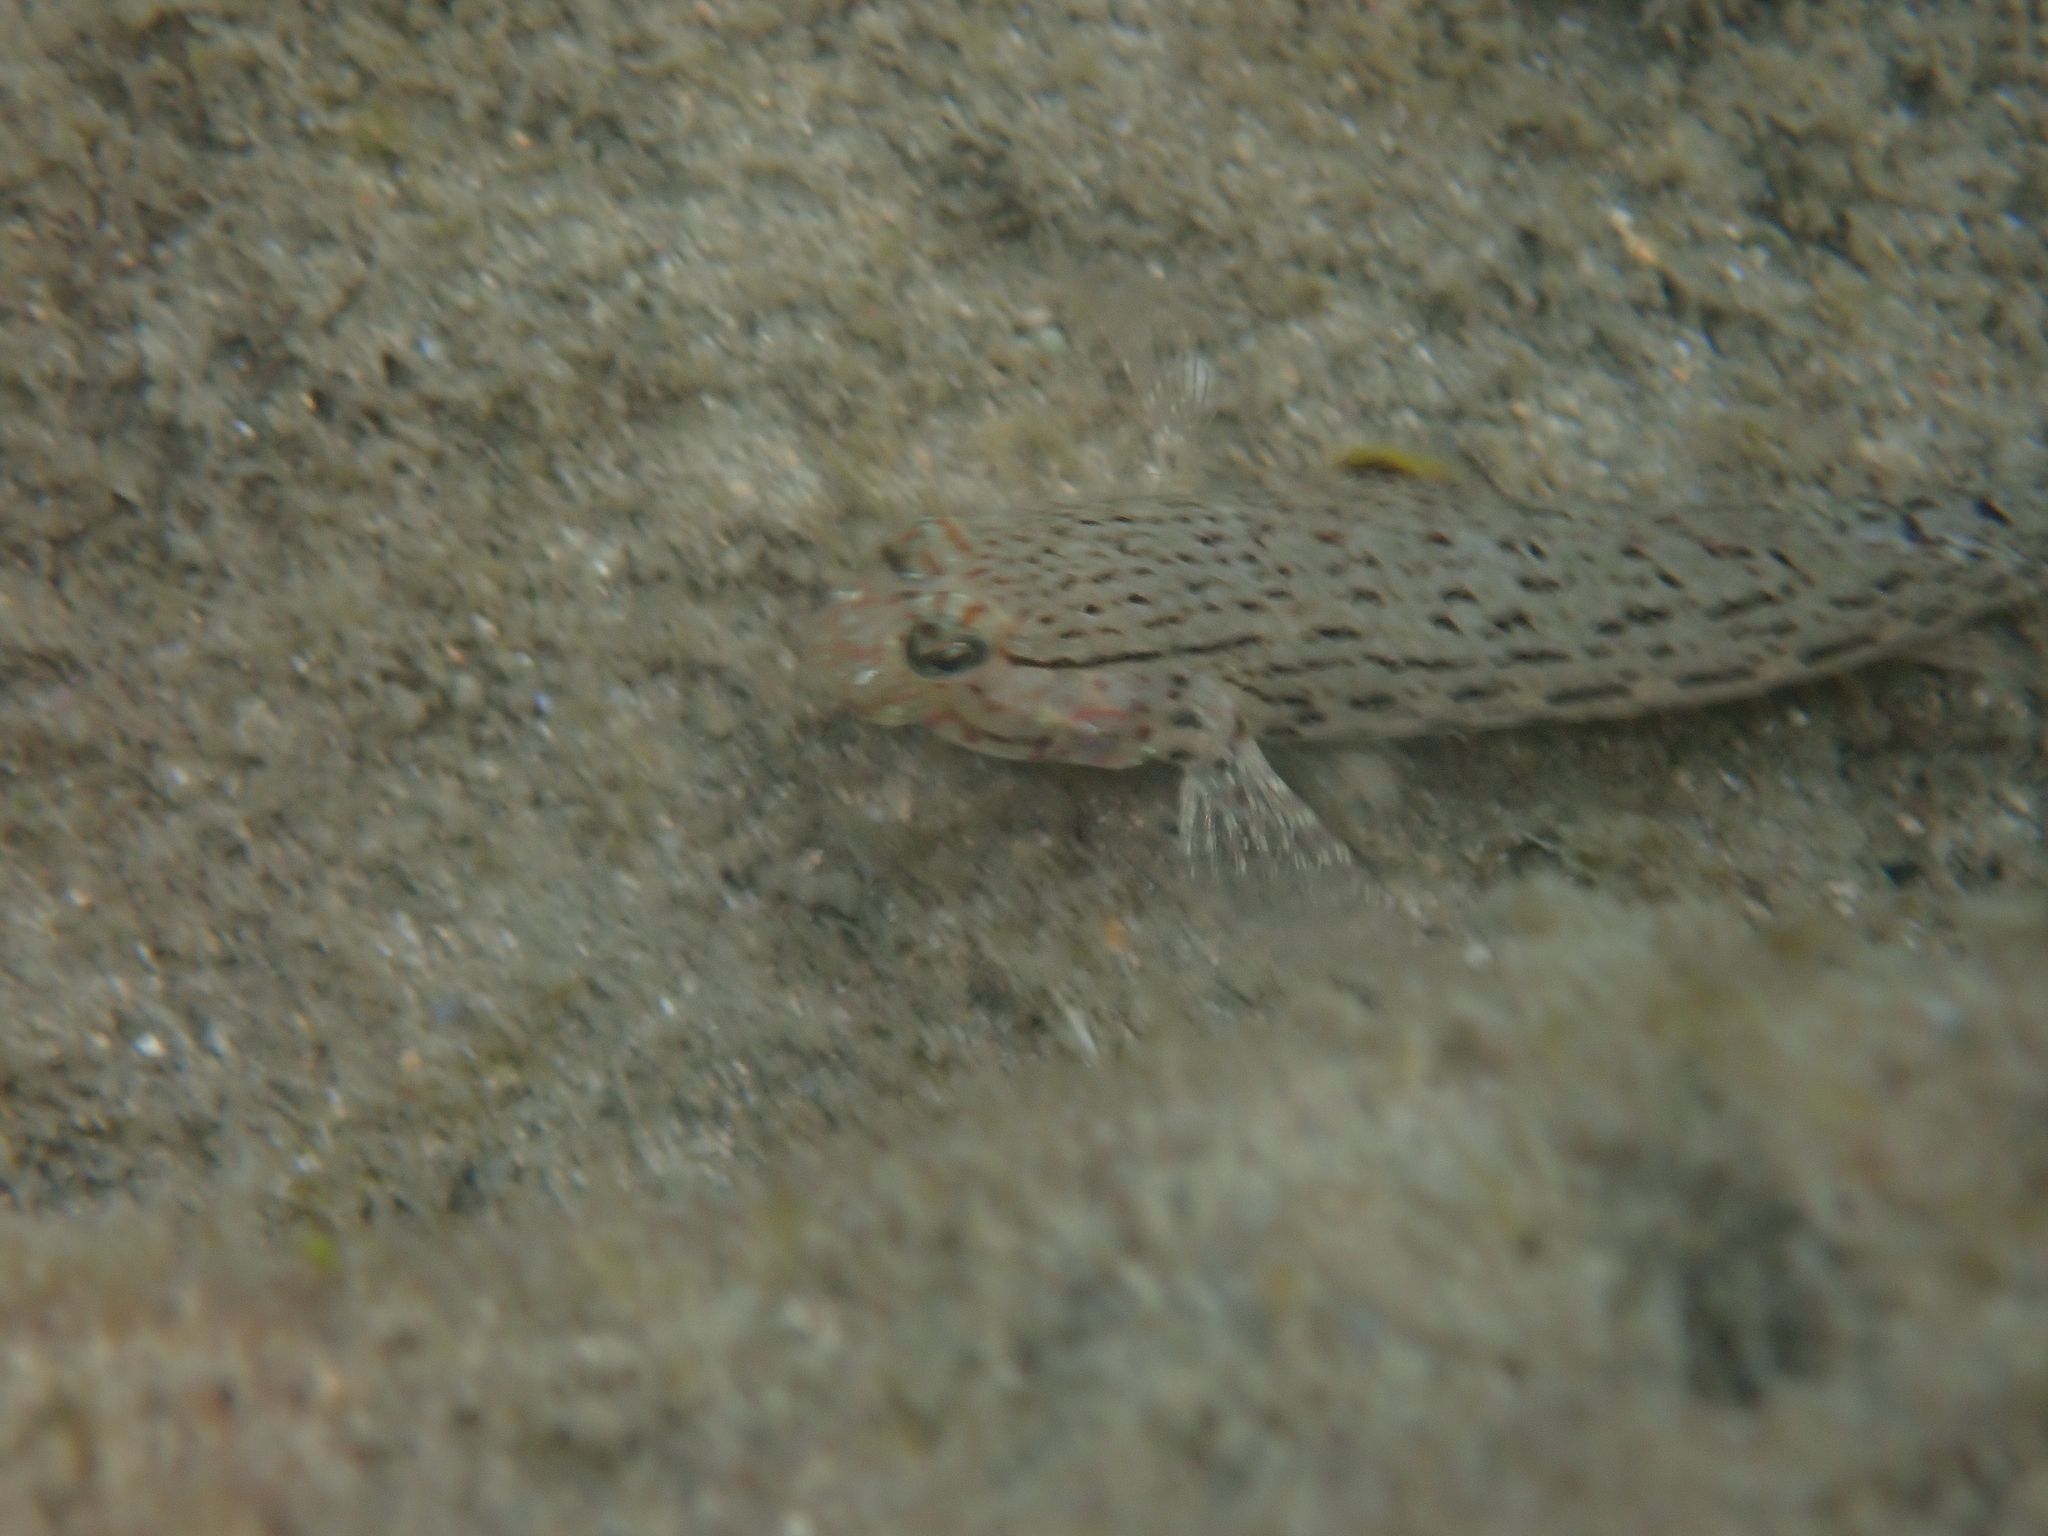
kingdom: Animalia
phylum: Chordata
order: Perciformes
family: Gobiidae
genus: Istigobius
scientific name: Istigobius ornatus
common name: Ornate goby
